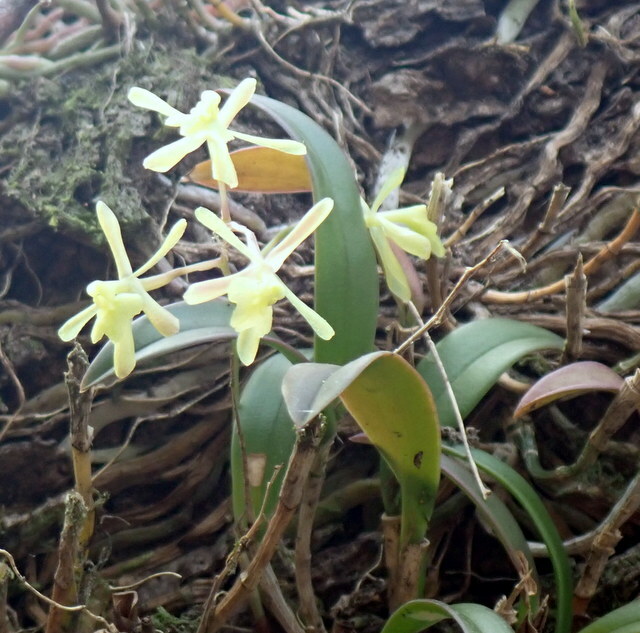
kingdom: Plantae
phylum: Tracheophyta
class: Liliopsida
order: Asparagales
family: Orchidaceae
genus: Epidendrum
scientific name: Epidendrum conopseum
